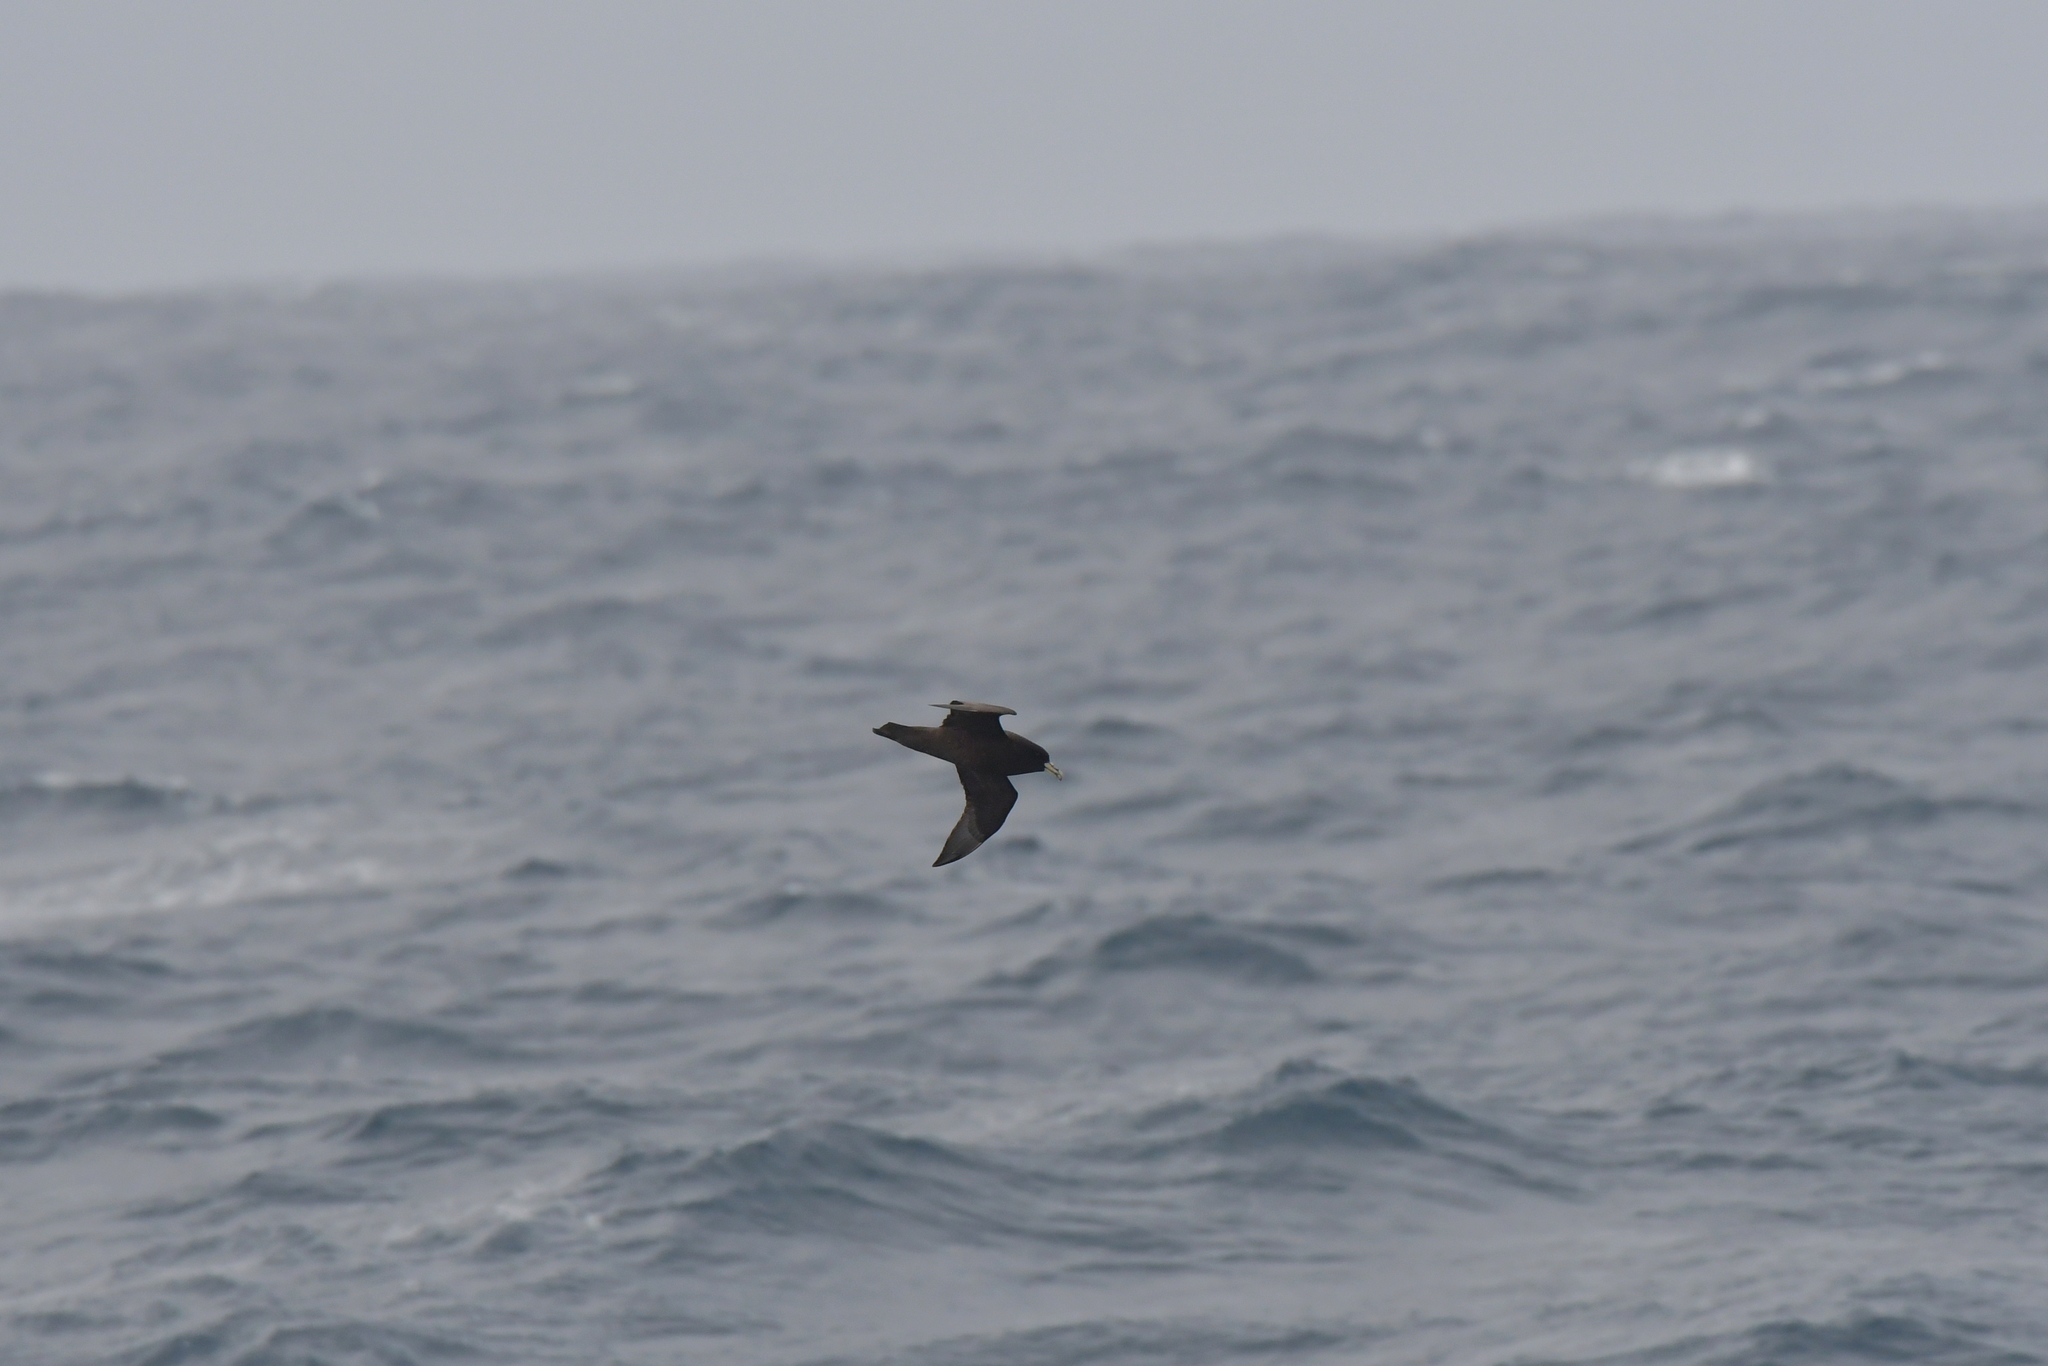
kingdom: Animalia
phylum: Chordata
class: Aves
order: Procellariiformes
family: Procellariidae
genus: Procellaria
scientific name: Procellaria aequinoctialis
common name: White-chinned petrel
